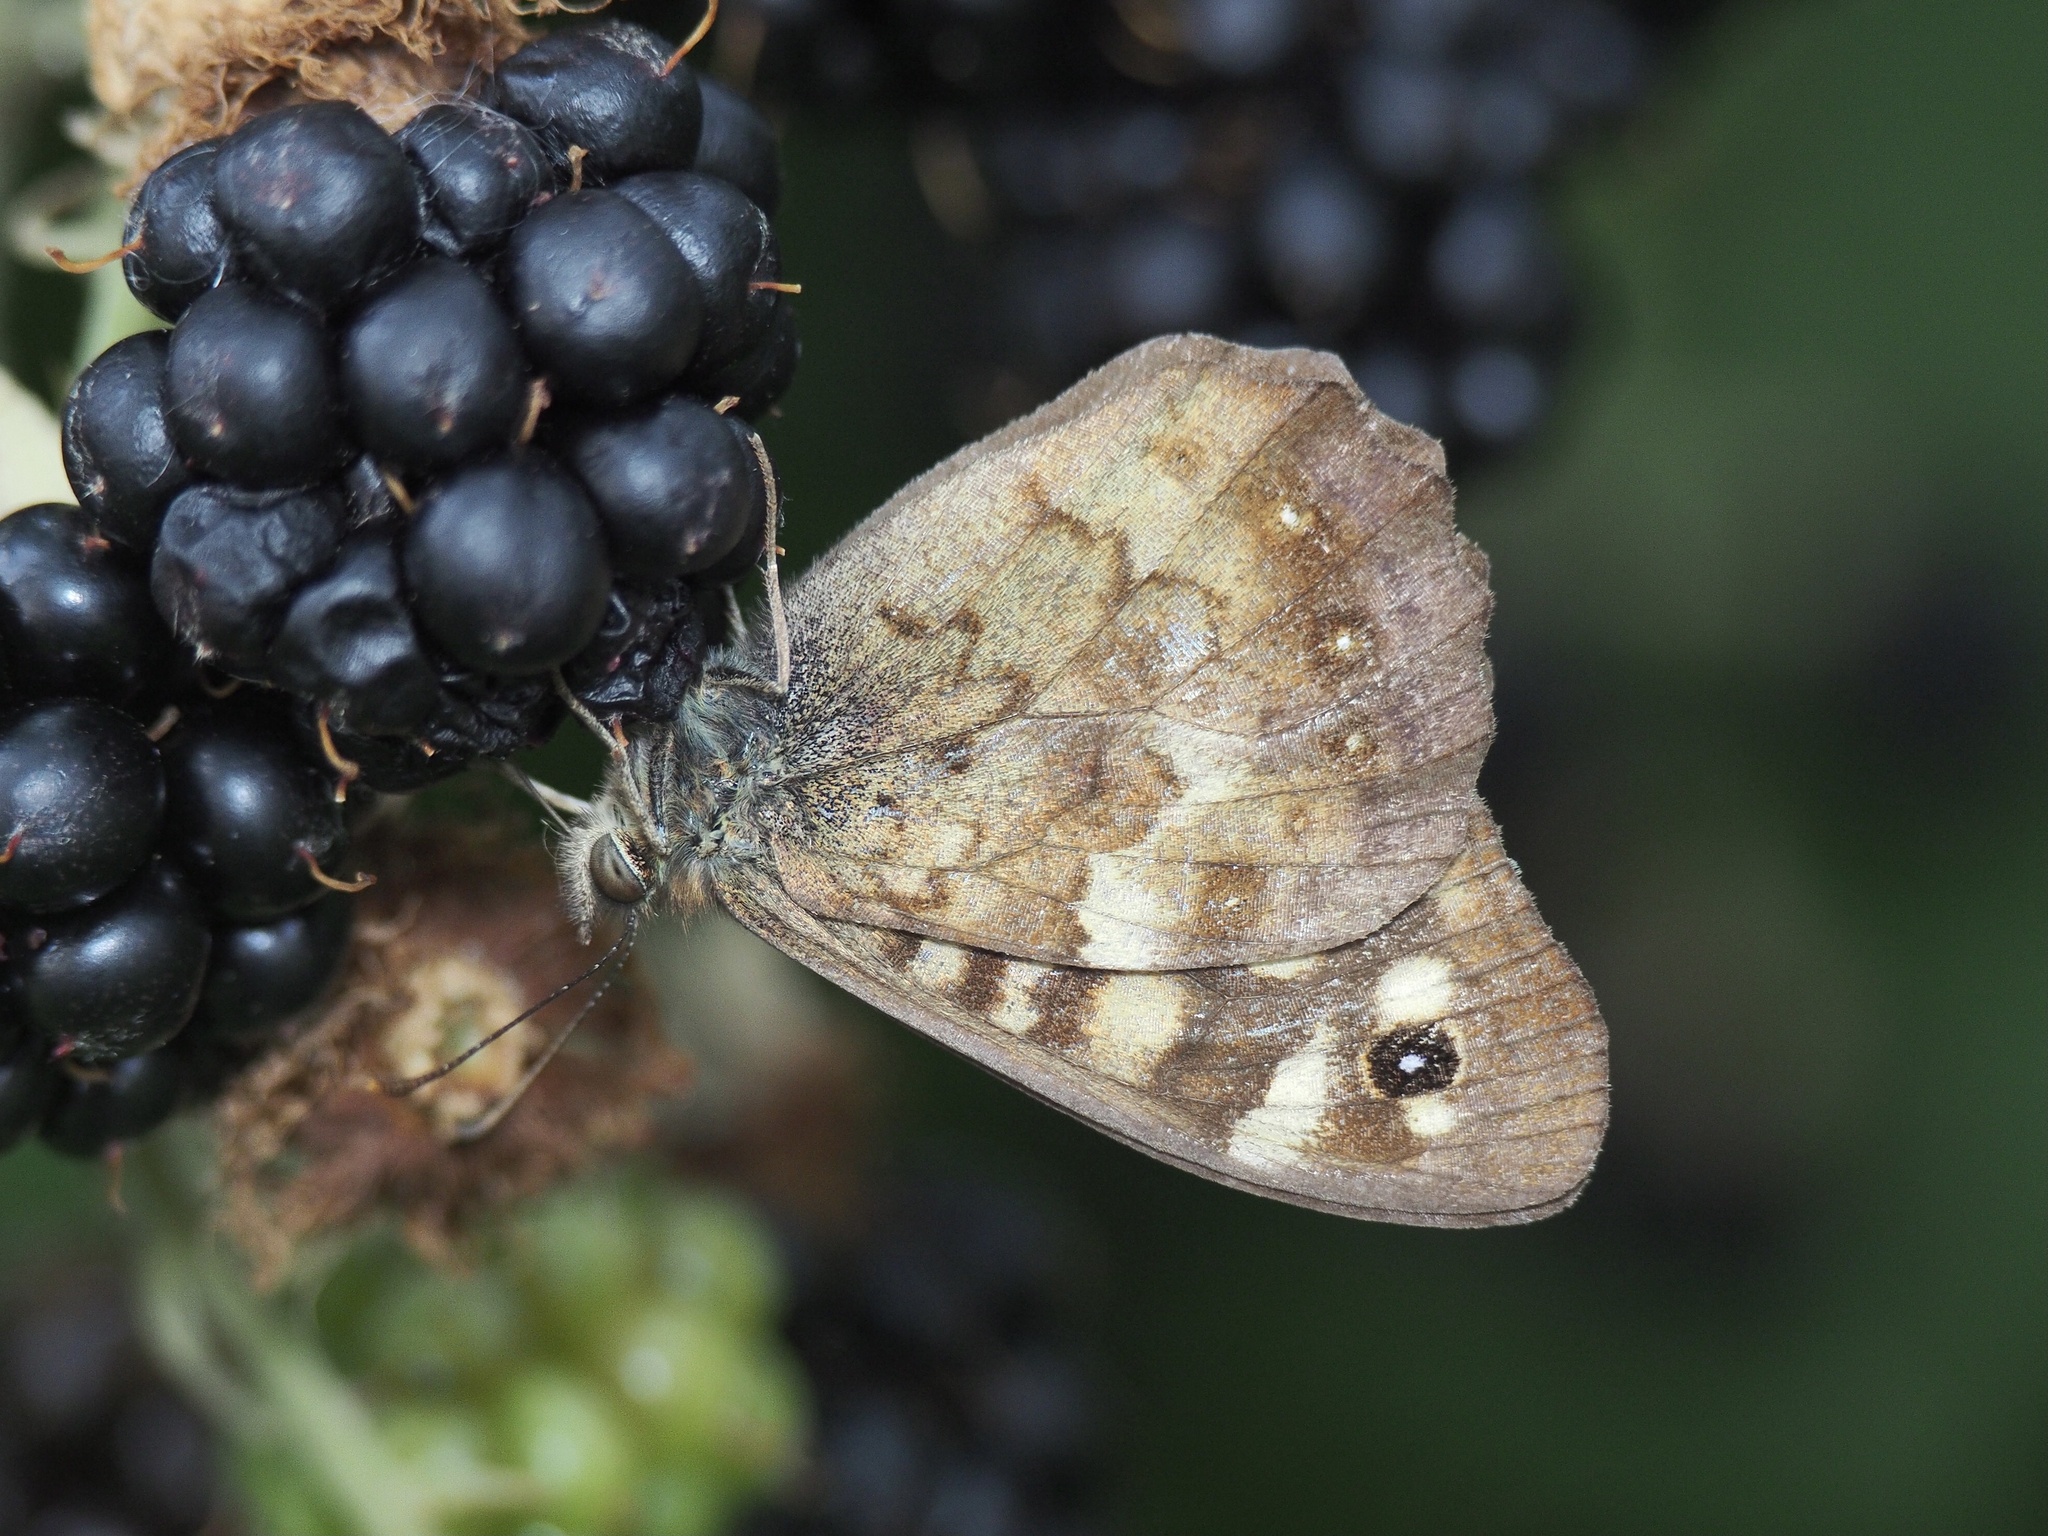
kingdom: Animalia
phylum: Arthropoda
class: Insecta
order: Lepidoptera
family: Nymphalidae
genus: Pararge
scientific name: Pararge aegeria
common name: Speckled wood
